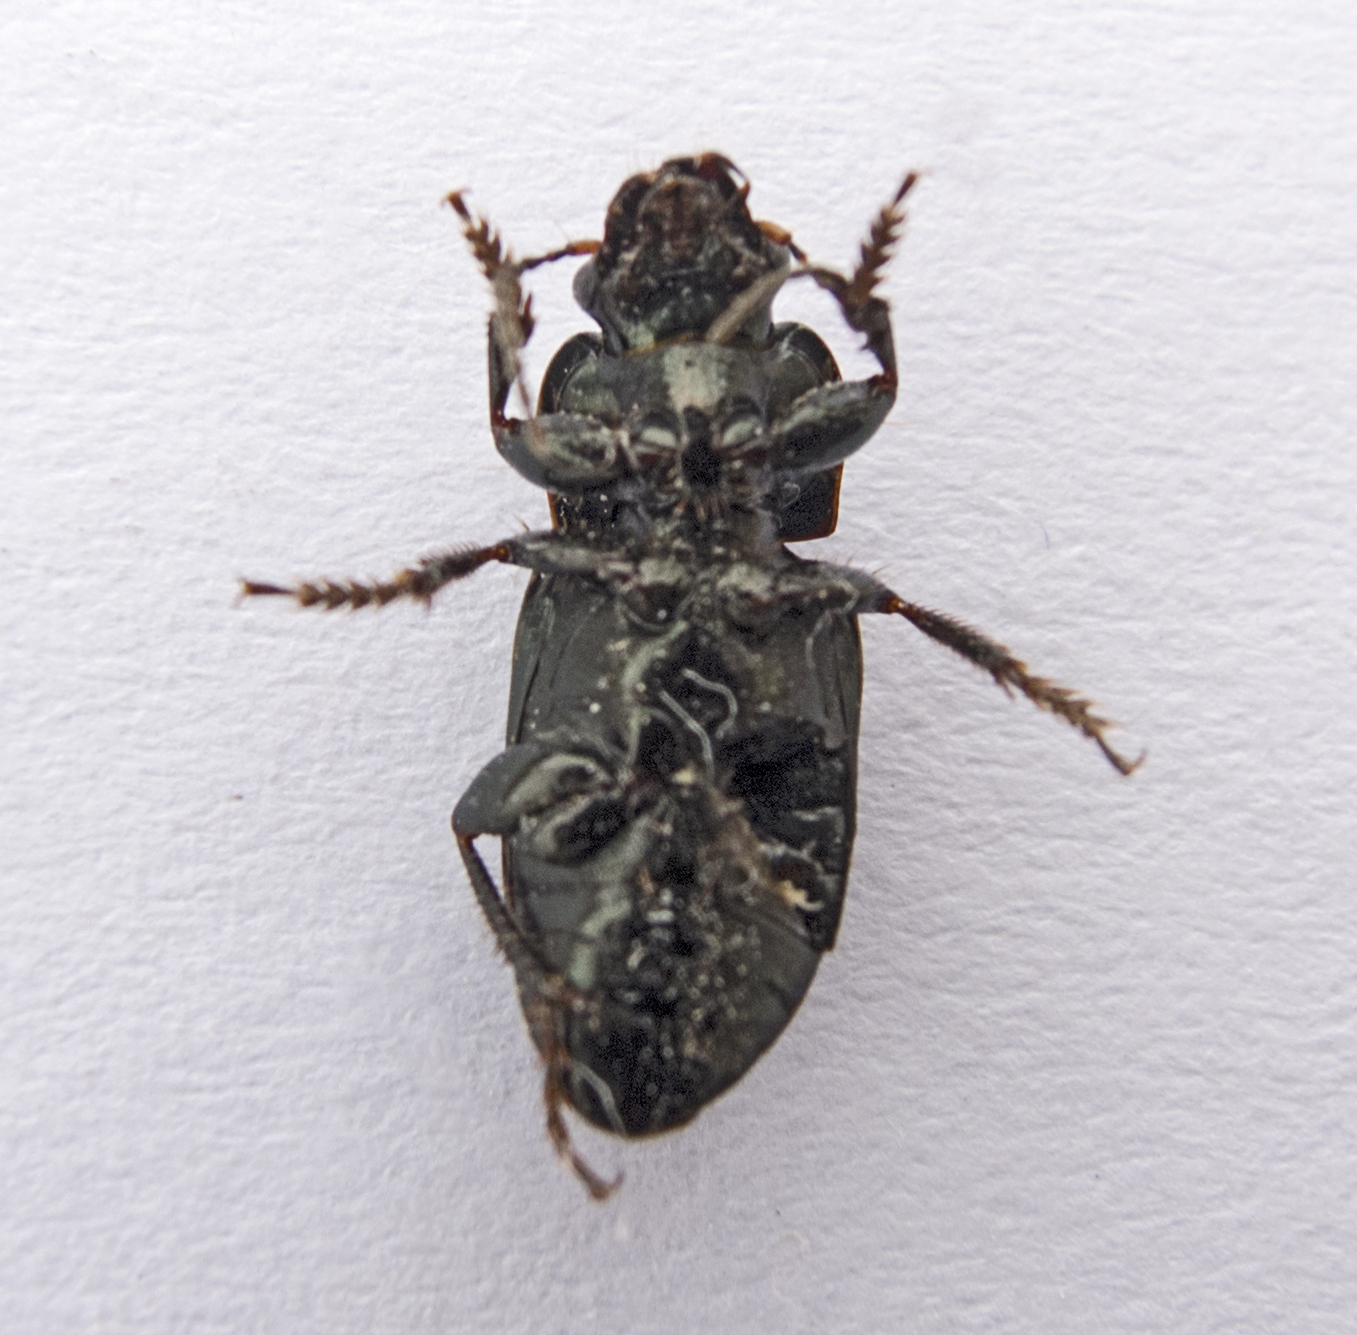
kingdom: Animalia
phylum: Arthropoda
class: Insecta
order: Coleoptera
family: Carabidae
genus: Harpalus
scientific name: Harpalus distinguendus
